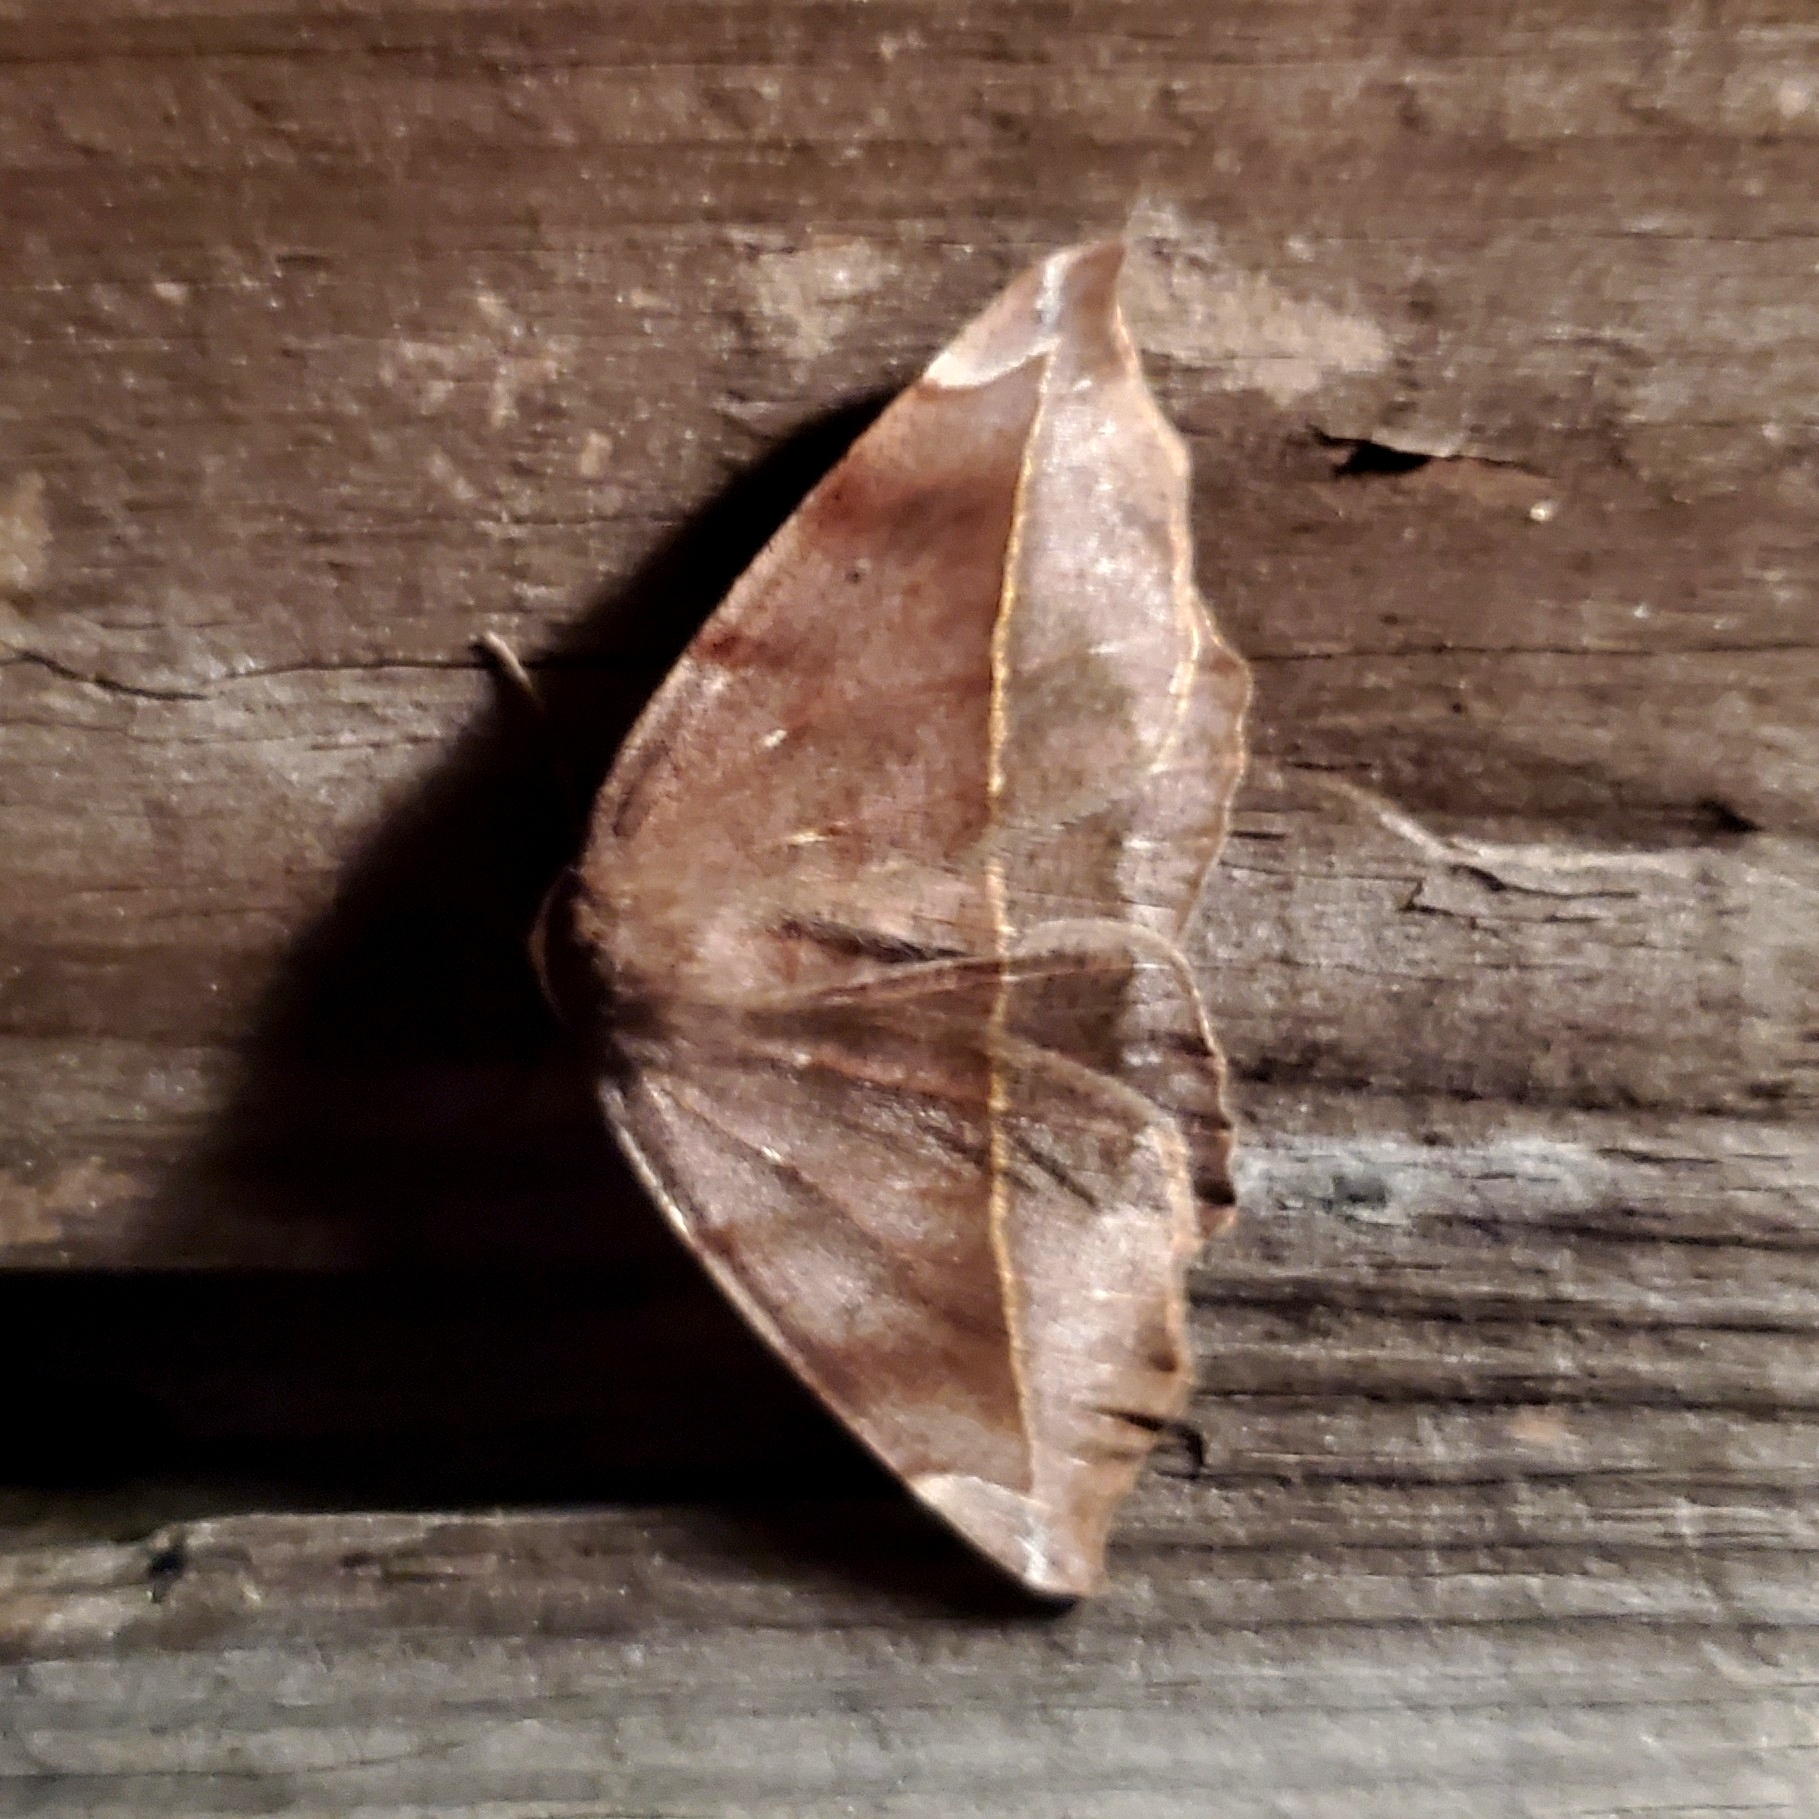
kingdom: Animalia
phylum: Arthropoda
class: Insecta
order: Lepidoptera
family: Geometridae
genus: Eutrapela
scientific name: Eutrapela clemataria
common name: Curved-toothed geometer
